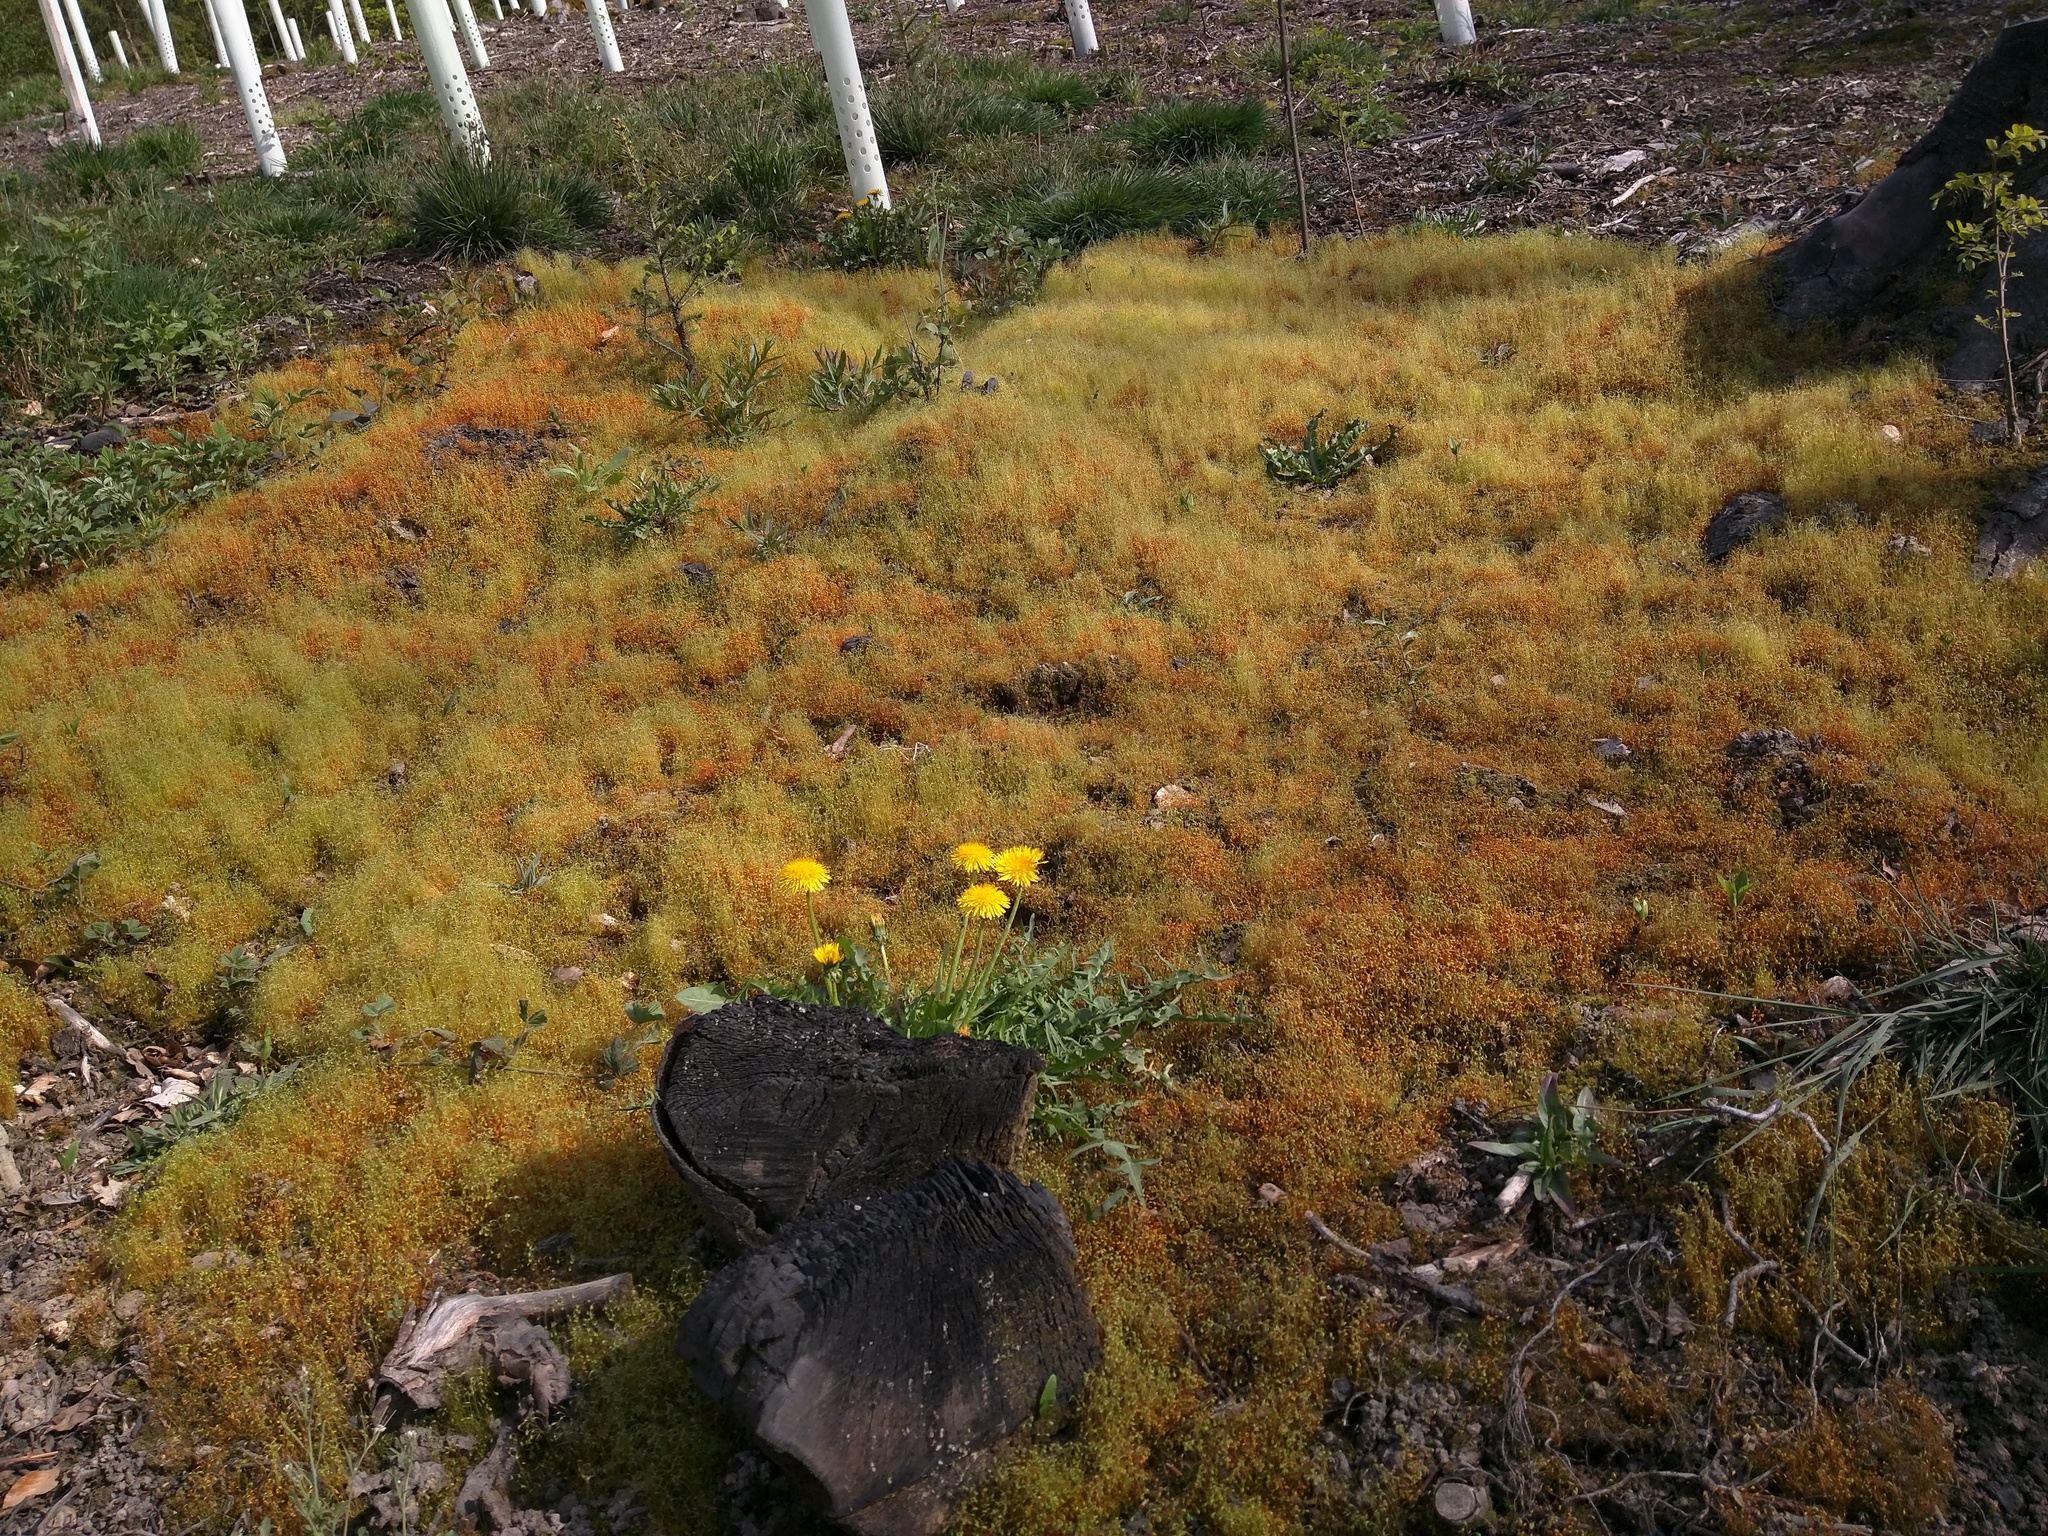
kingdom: Plantae
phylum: Tracheophyta
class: Magnoliopsida
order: Asterales
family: Asteraceae
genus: Taraxacum
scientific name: Taraxacum officinale
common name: Common dandelion
